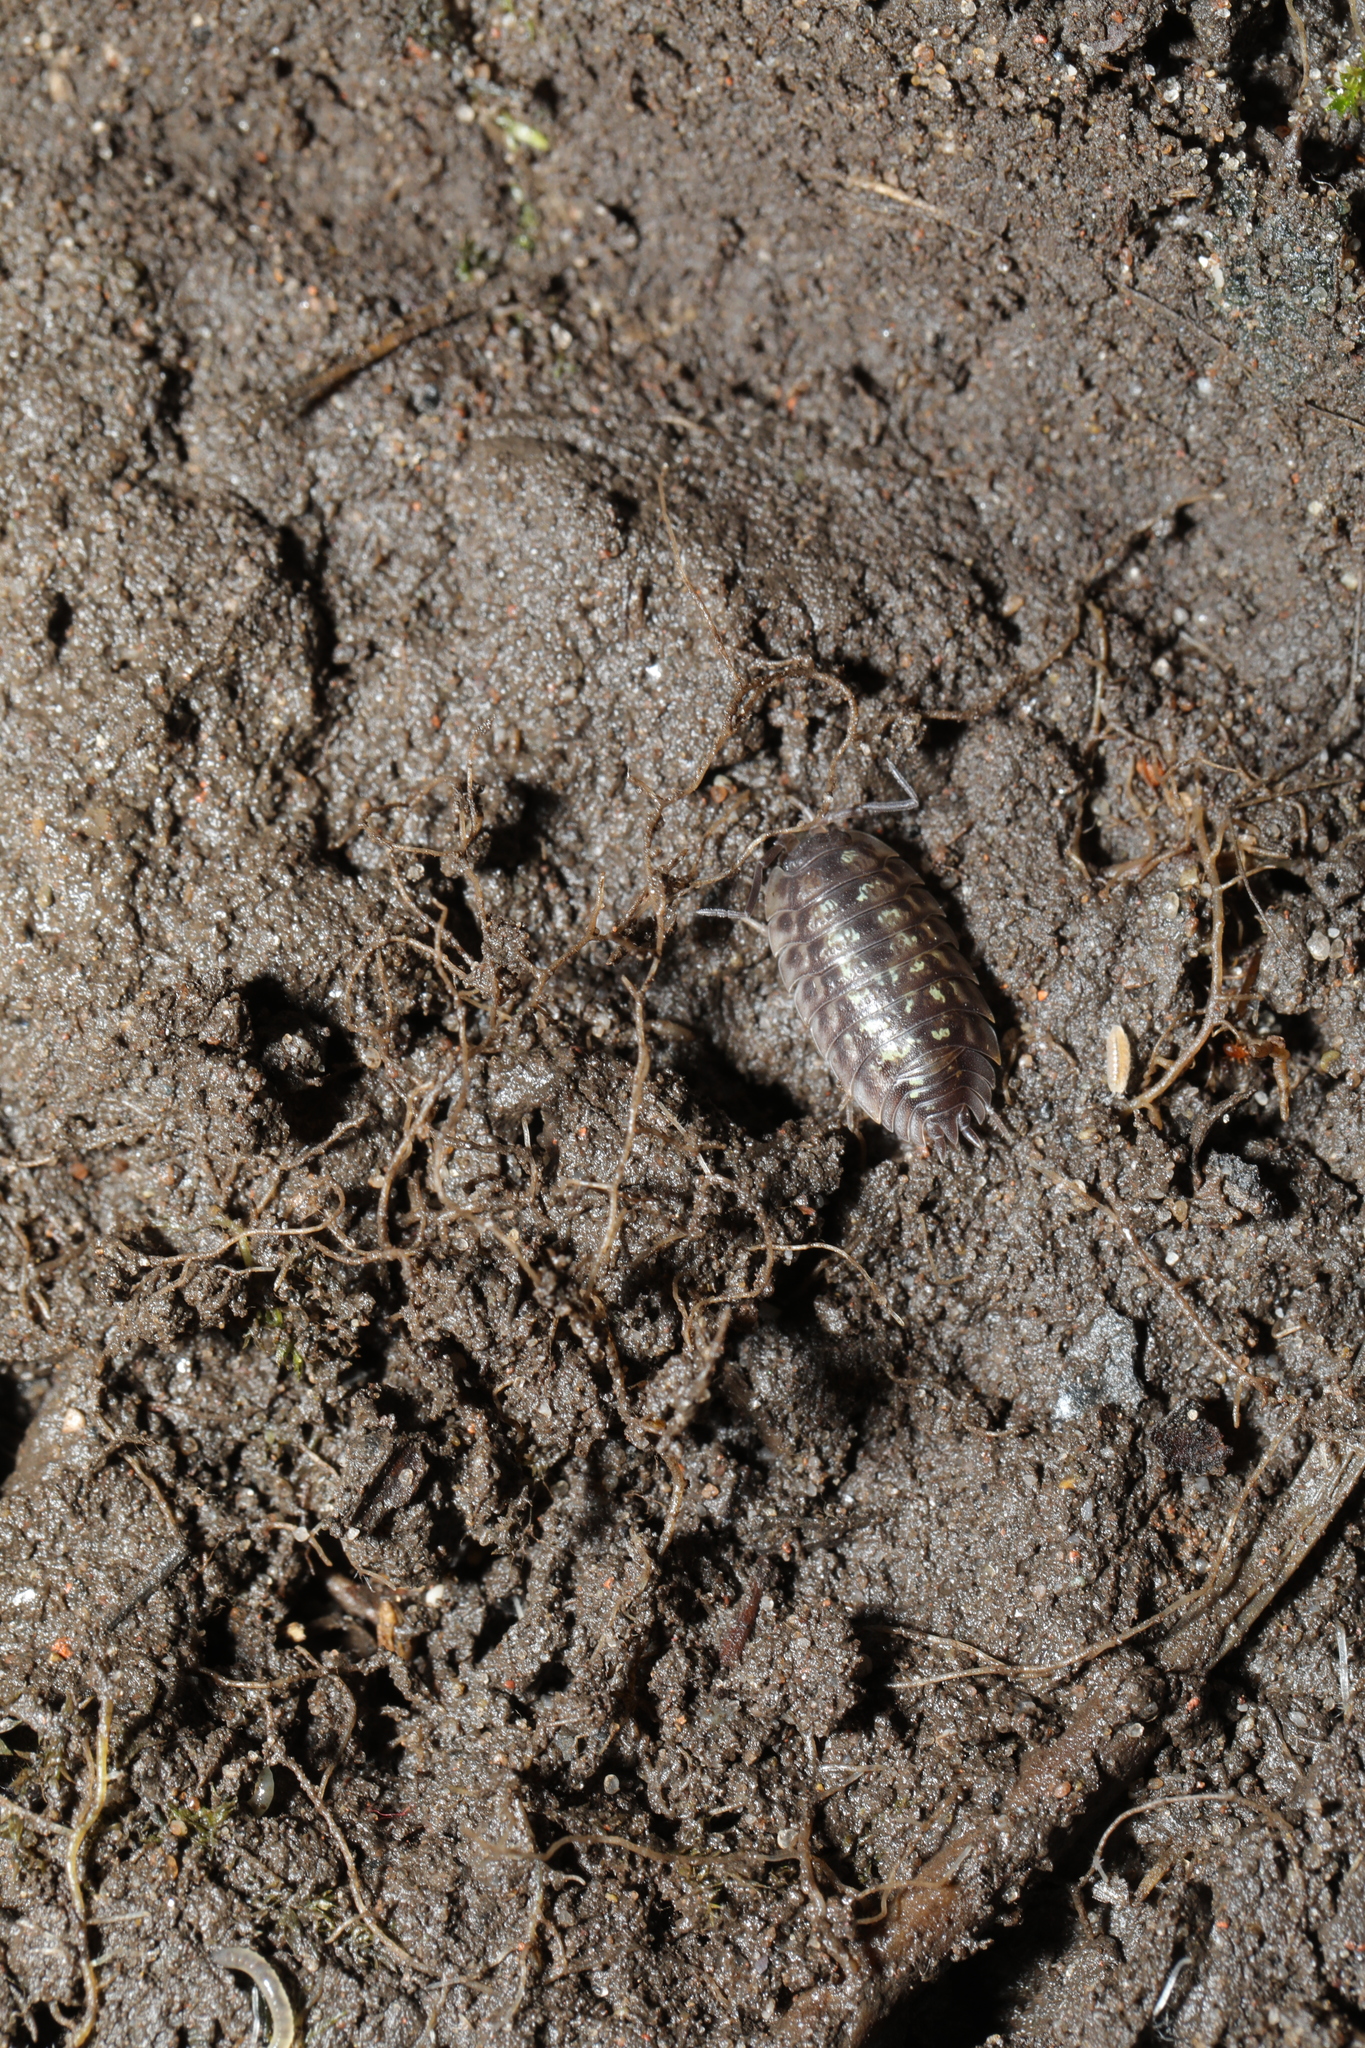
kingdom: Animalia
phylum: Arthropoda
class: Malacostraca
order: Isopoda
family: Oniscidae
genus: Oniscus
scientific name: Oniscus asellus
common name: Common shiny woodlouse
